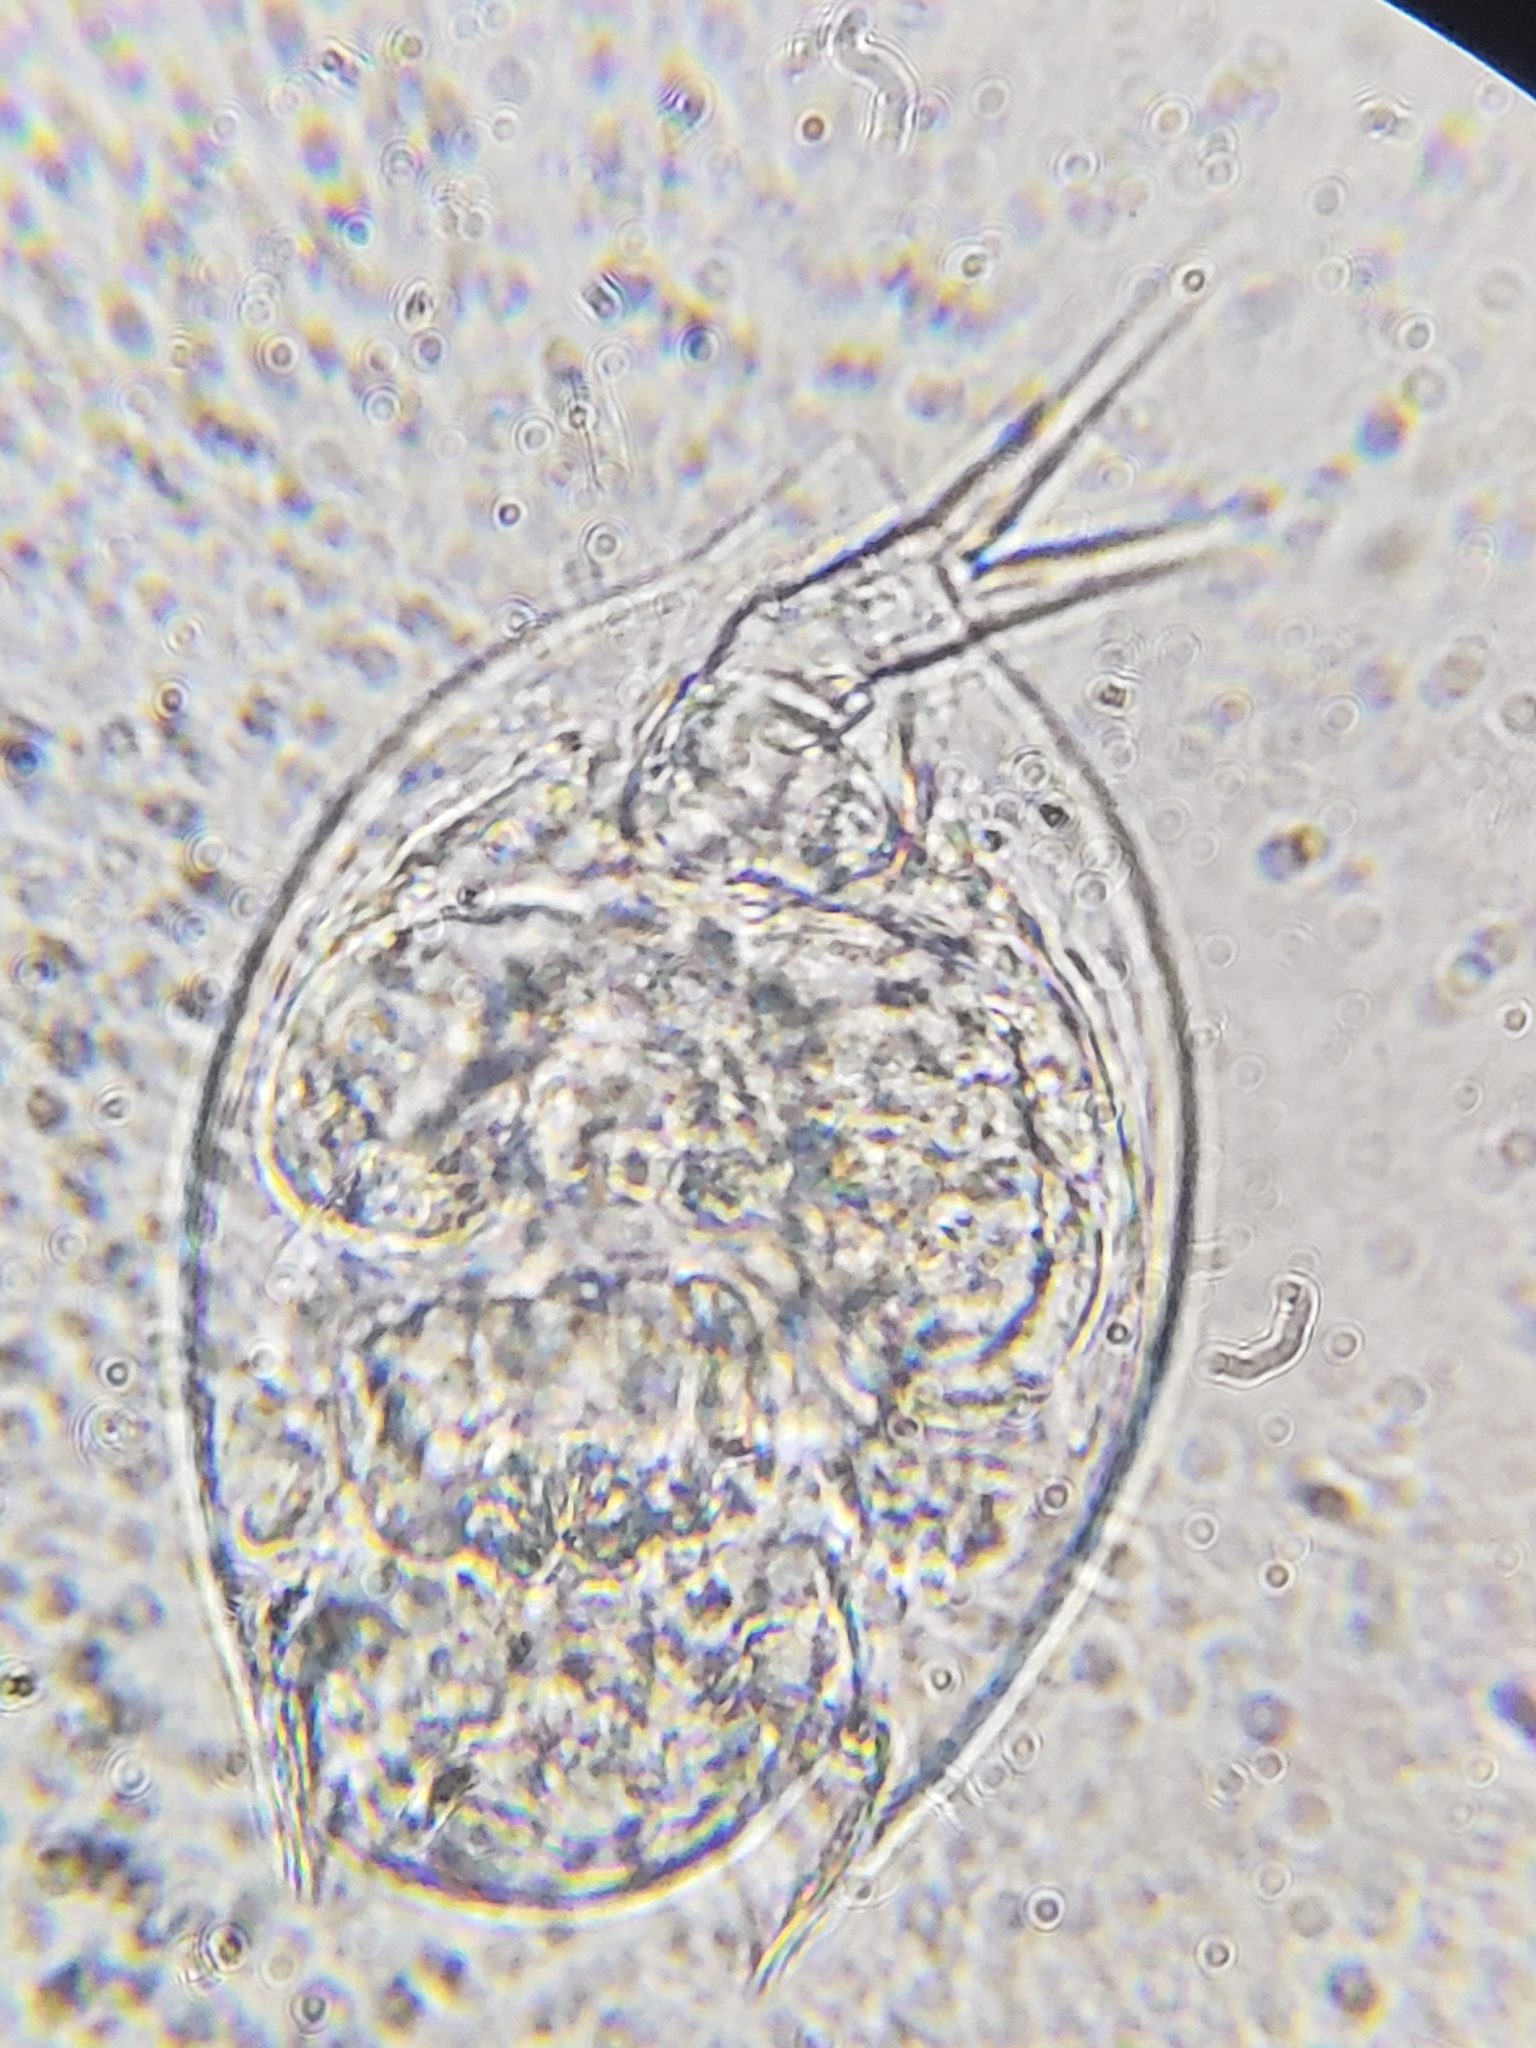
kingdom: Animalia
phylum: Rotifera
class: Eurotatoria
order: Ploima
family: Lepadellidae
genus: Lepadella
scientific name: Lepadella acuminata
